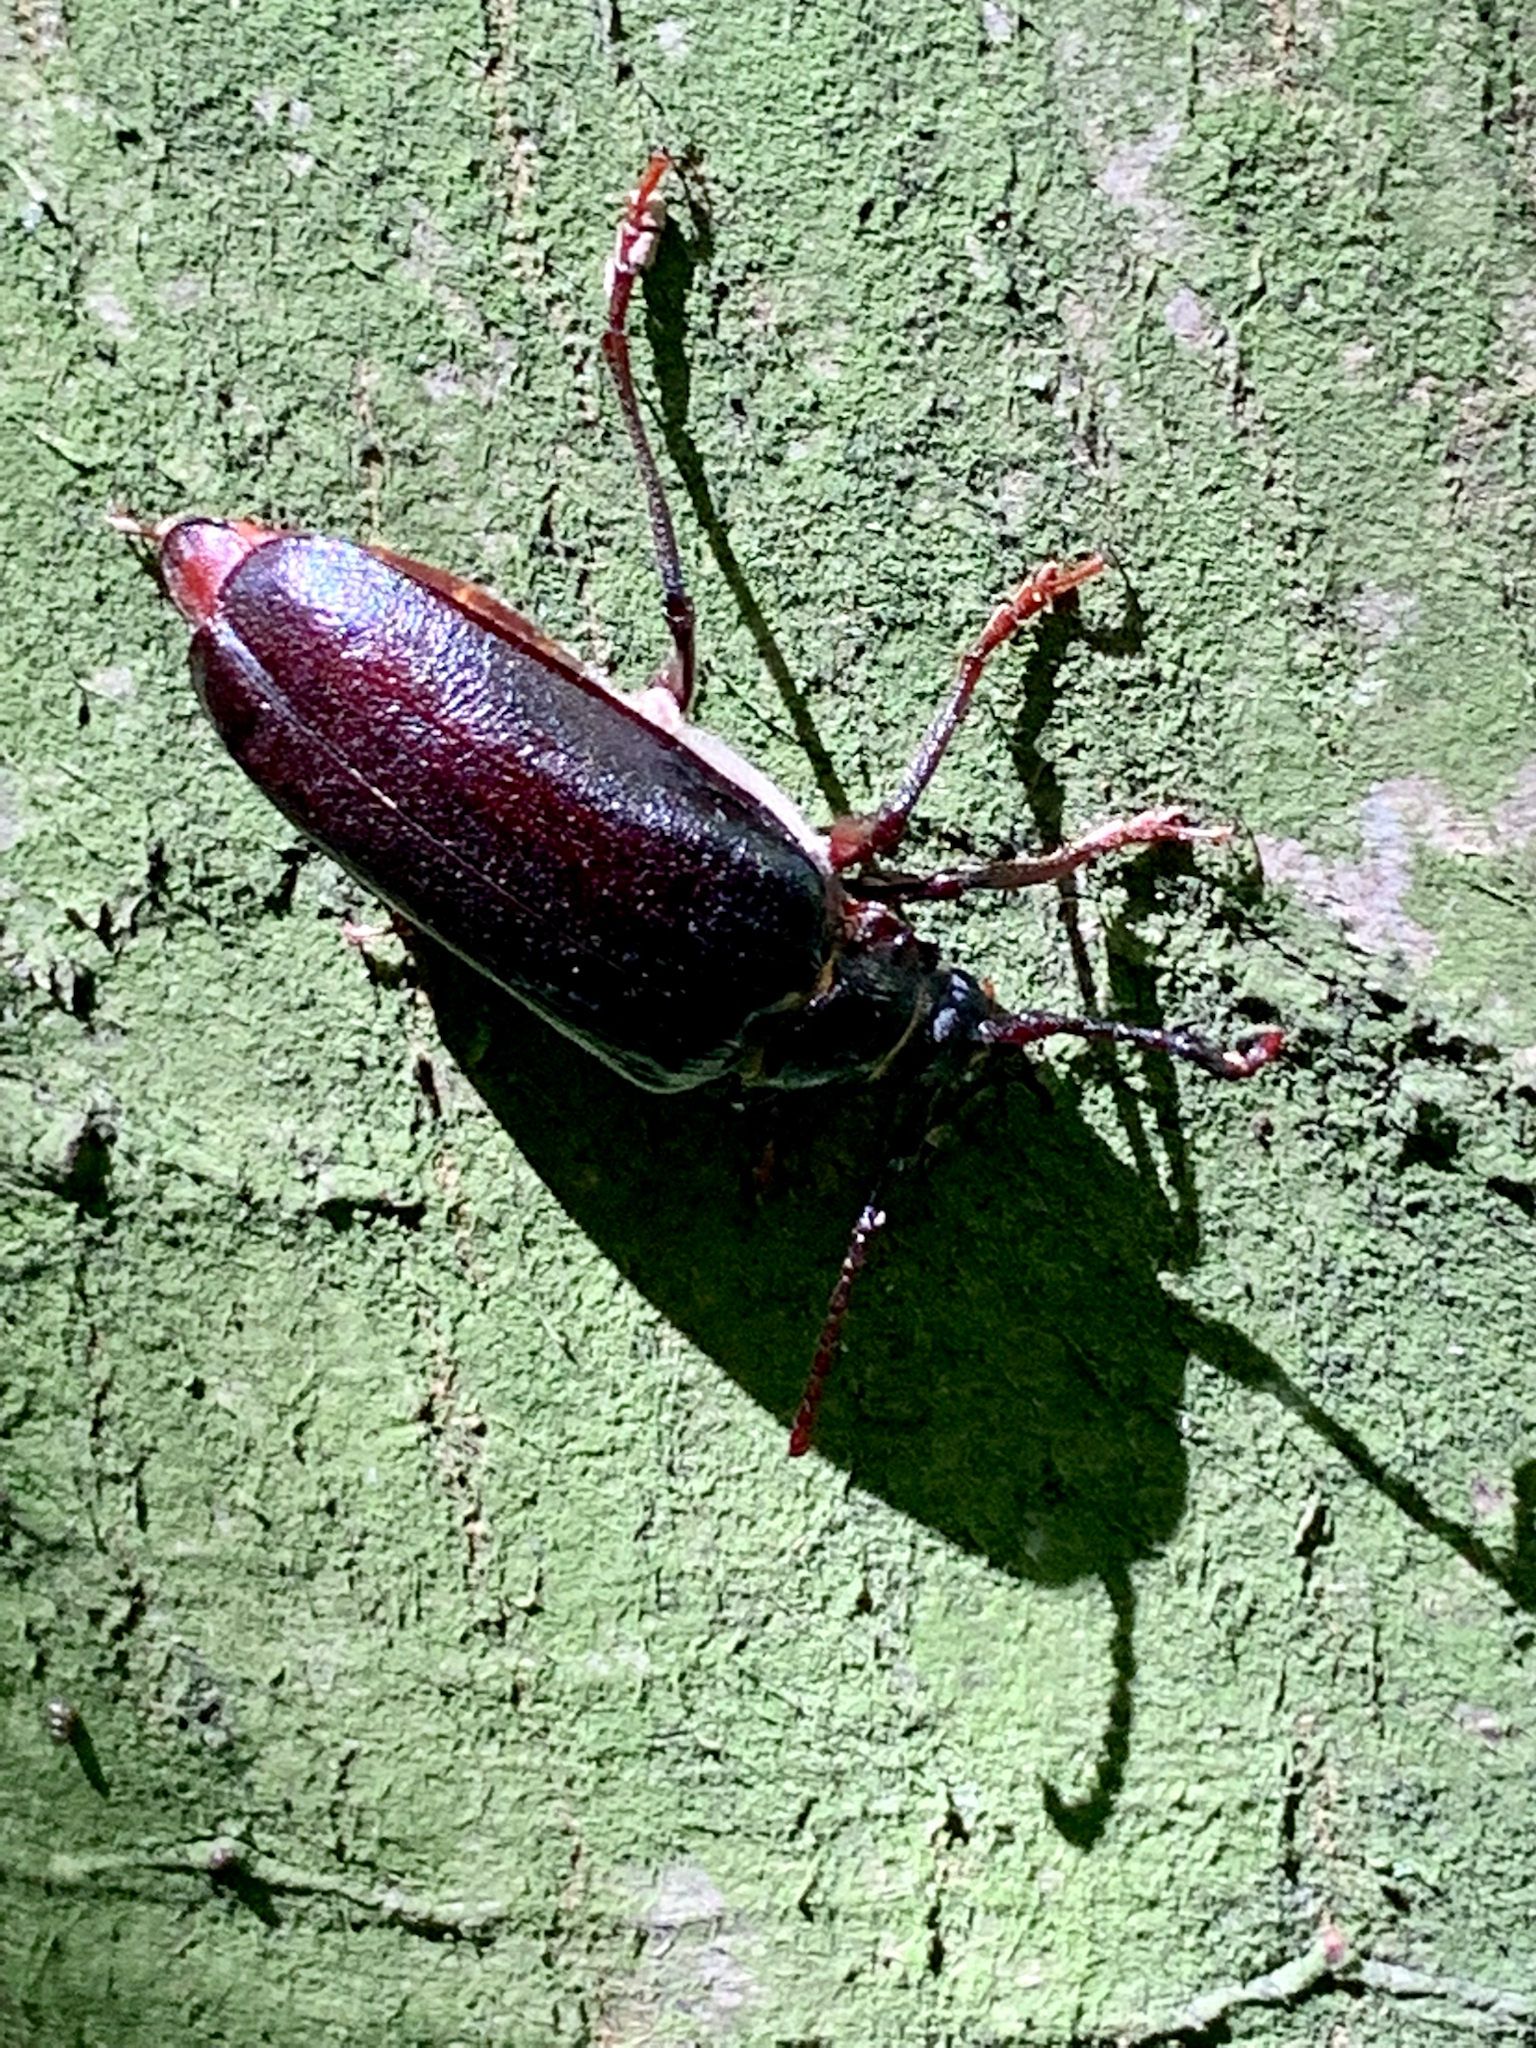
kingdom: Animalia
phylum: Arthropoda
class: Insecta
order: Coleoptera
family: Cerambycidae
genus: Prionus
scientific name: Prionus coriarius
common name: Tanner beetle
